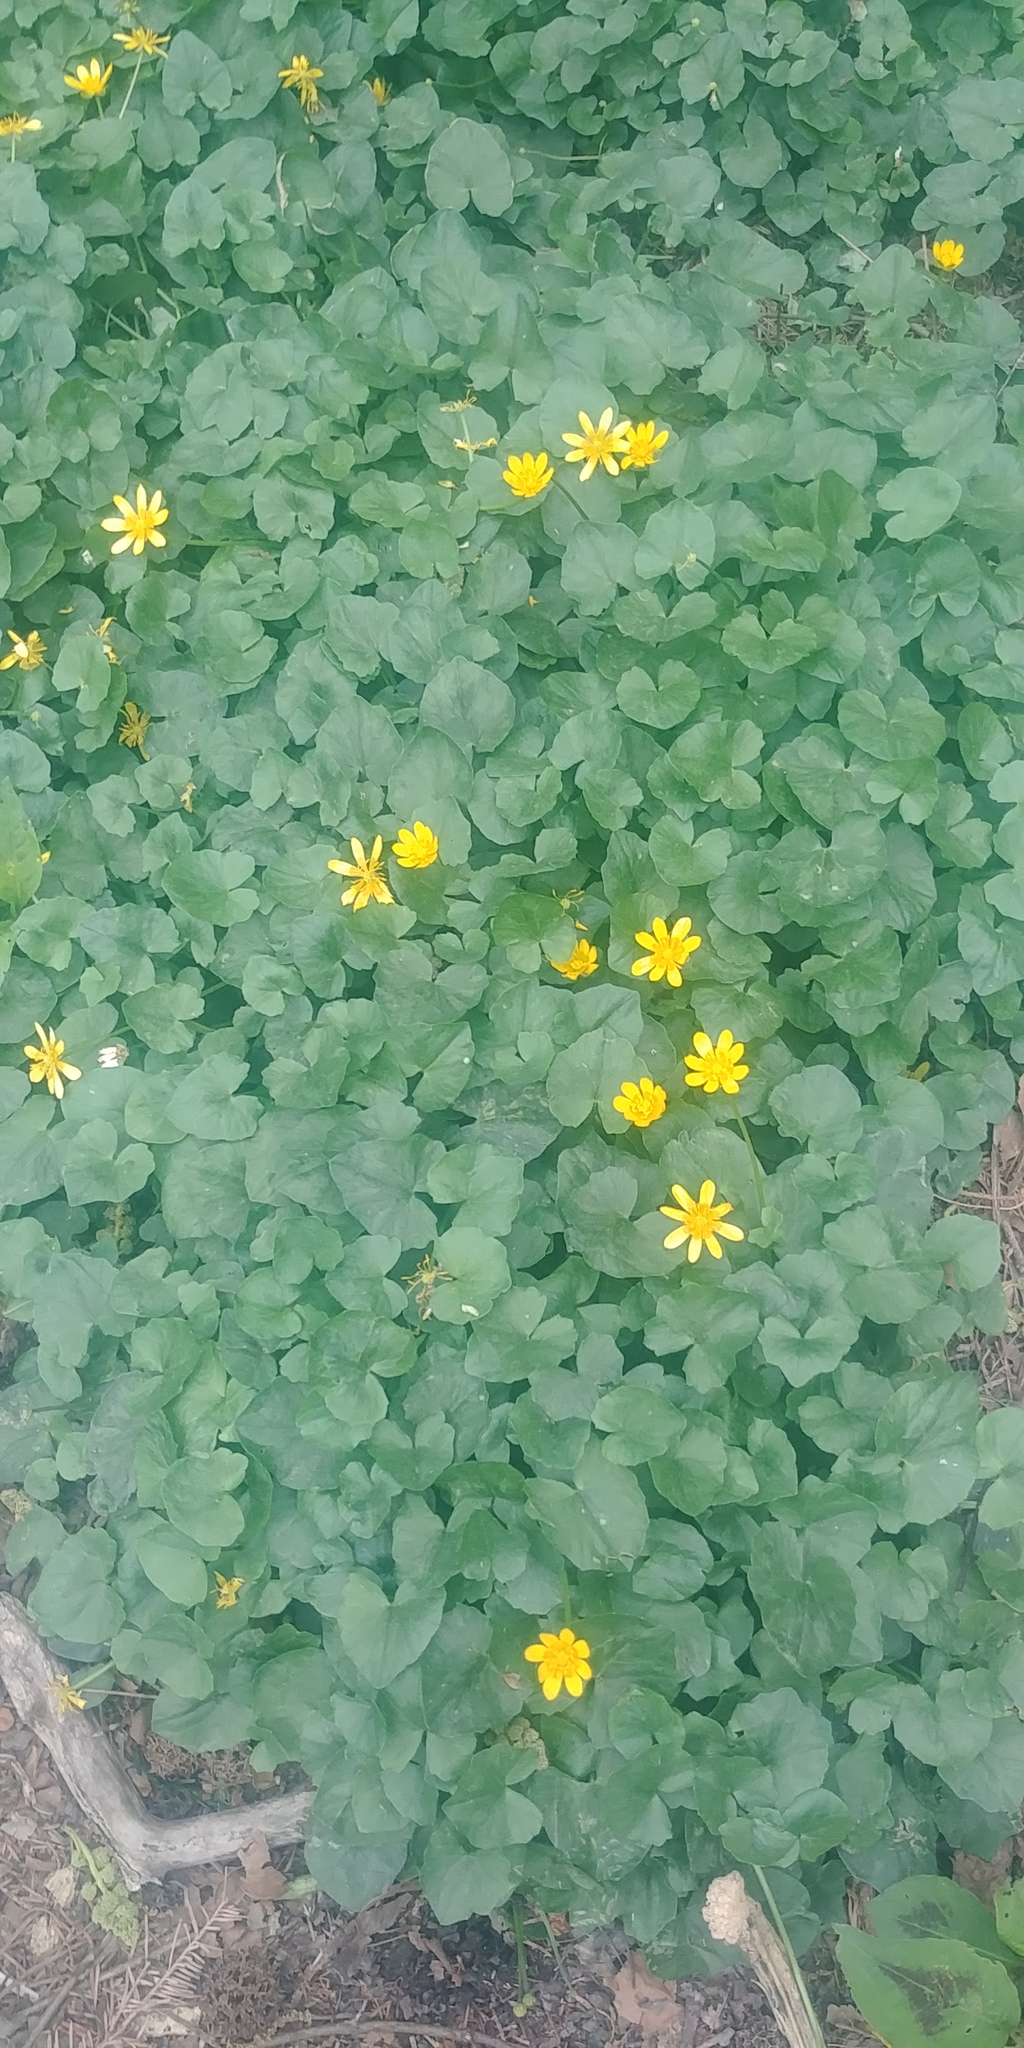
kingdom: Plantae
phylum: Tracheophyta
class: Magnoliopsida
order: Ranunculales
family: Ranunculaceae
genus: Ficaria
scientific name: Ficaria verna
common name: Lesser celandine
